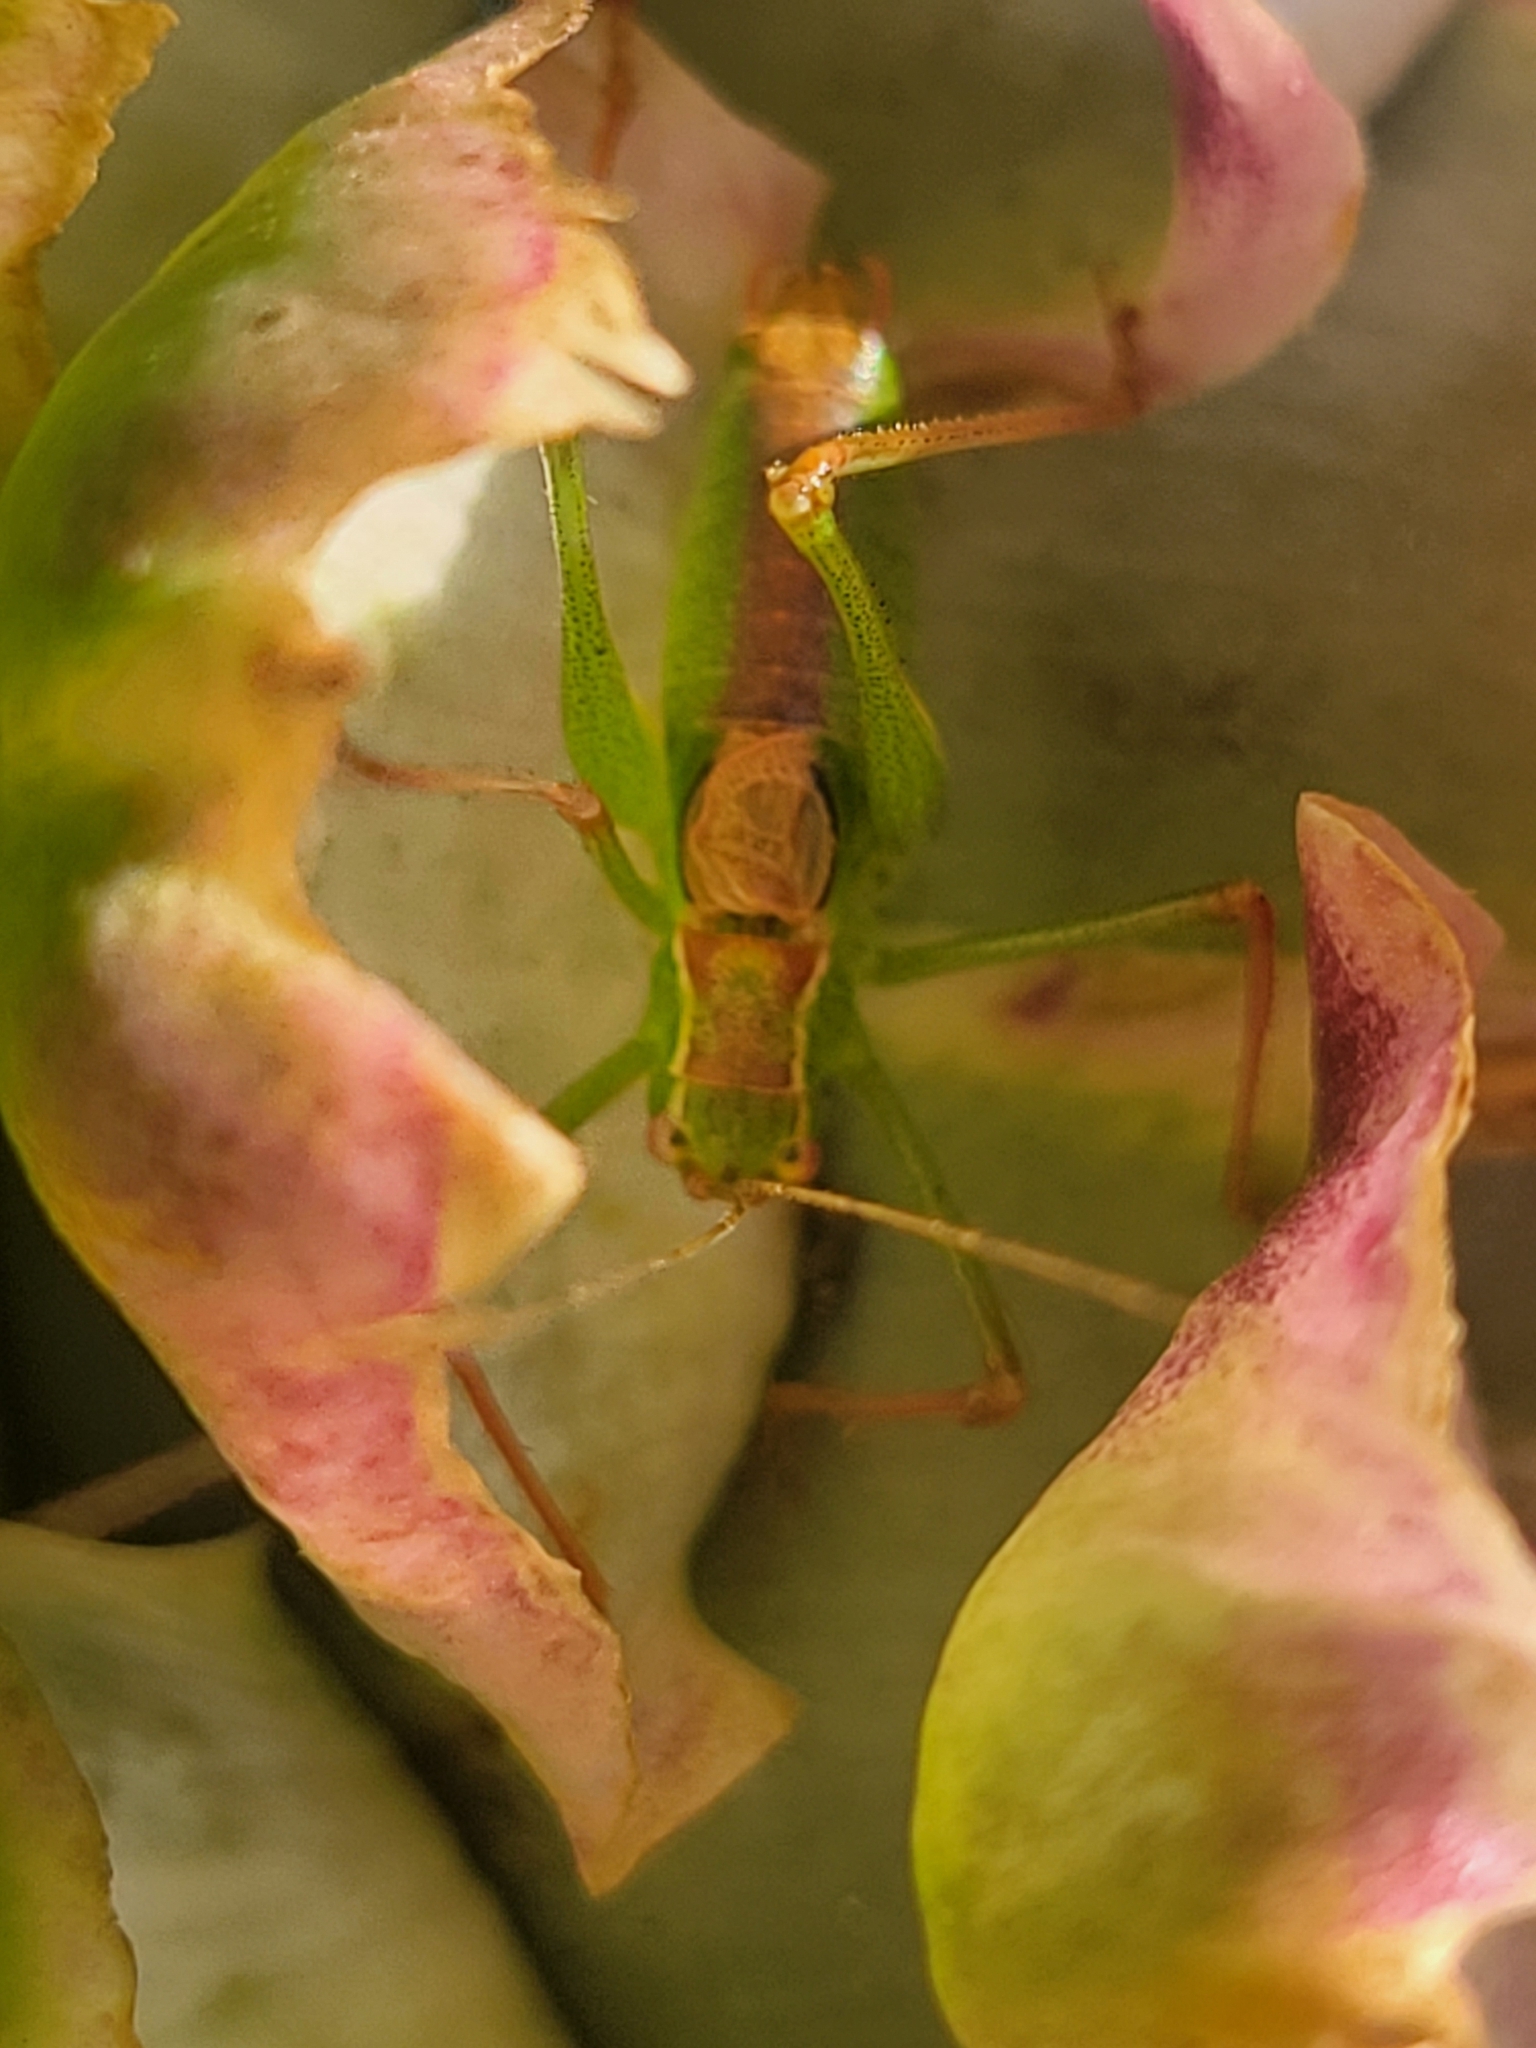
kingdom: Animalia
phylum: Arthropoda
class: Insecta
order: Orthoptera
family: Tettigoniidae
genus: Leptophyes
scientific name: Leptophyes punctatissima
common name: Speckled bush-cricket
